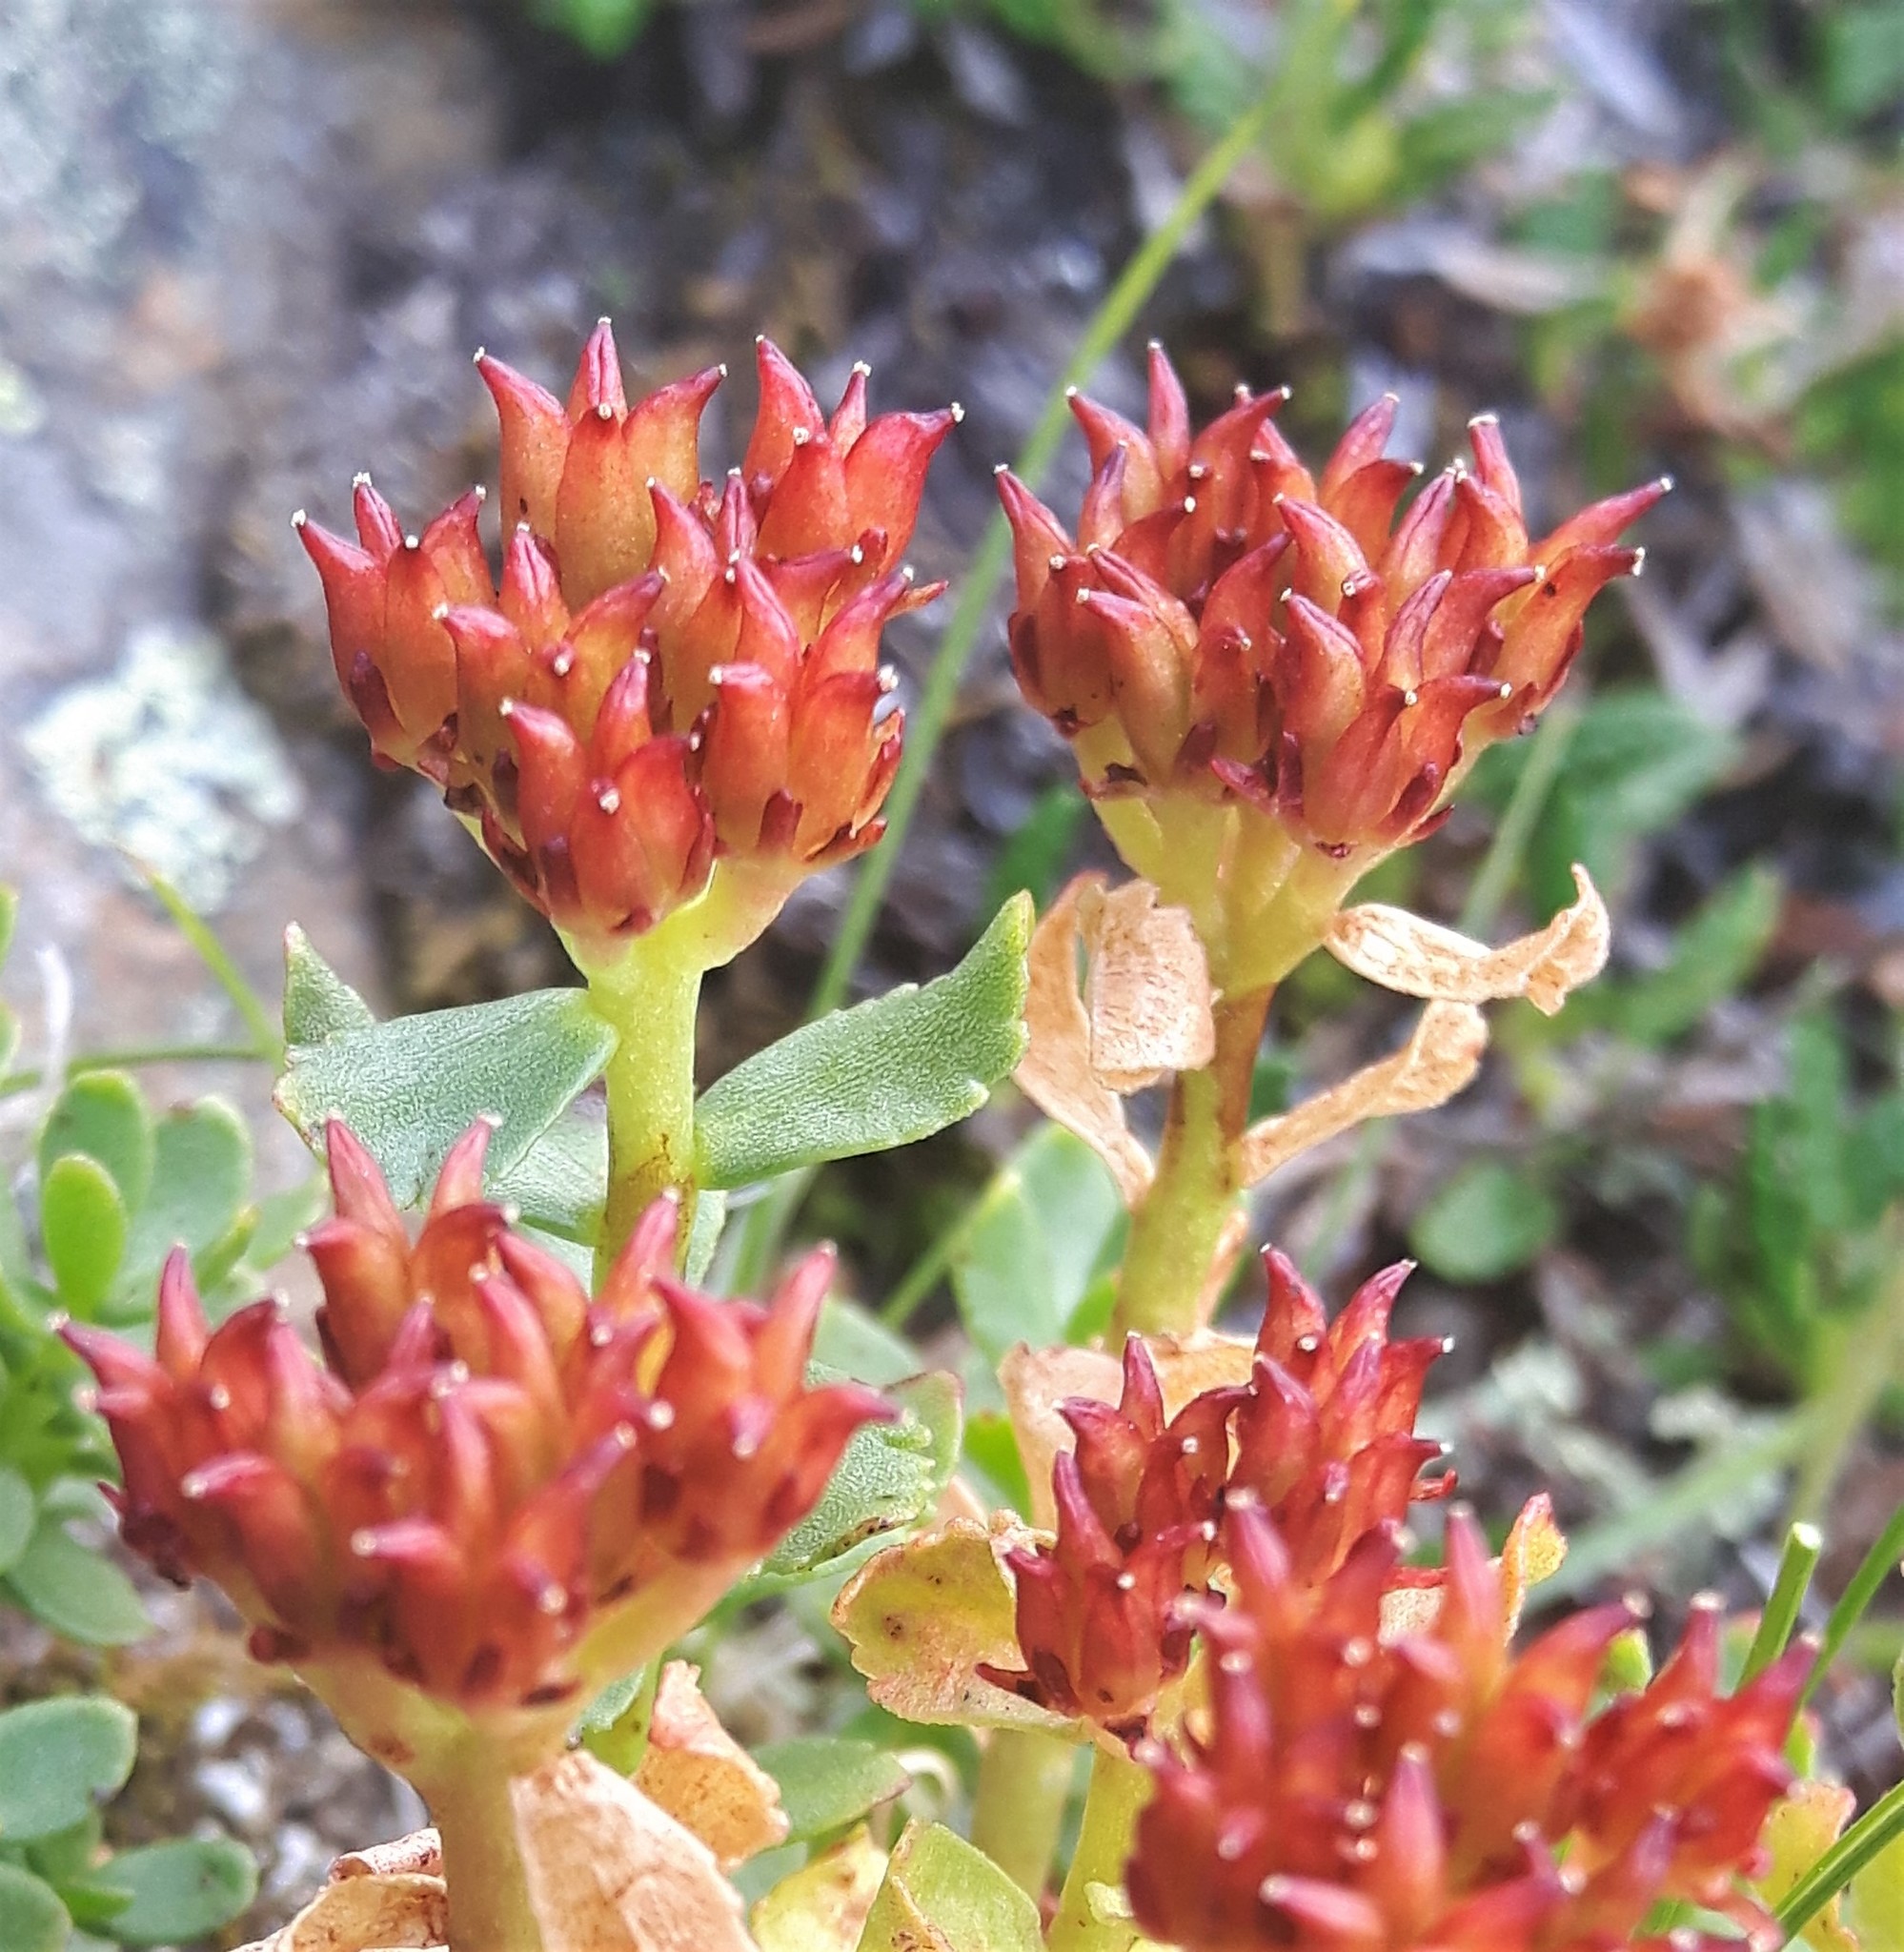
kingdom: Plantae
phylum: Tracheophyta
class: Magnoliopsida
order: Saxifragales
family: Crassulaceae
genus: Rhodiola
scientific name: Rhodiola integrifolia
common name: Western roseroot
